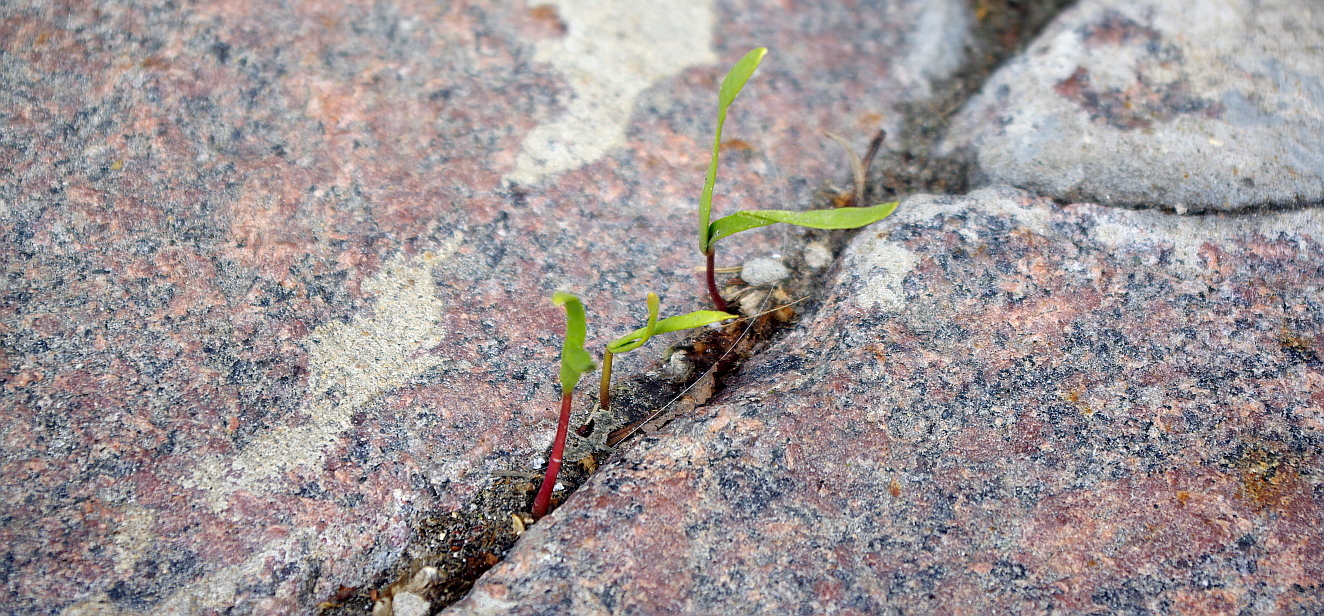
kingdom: Plantae
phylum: Tracheophyta
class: Magnoliopsida
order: Sapindales
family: Sapindaceae
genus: Acer
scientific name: Acer negundo
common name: Ashleaf maple
